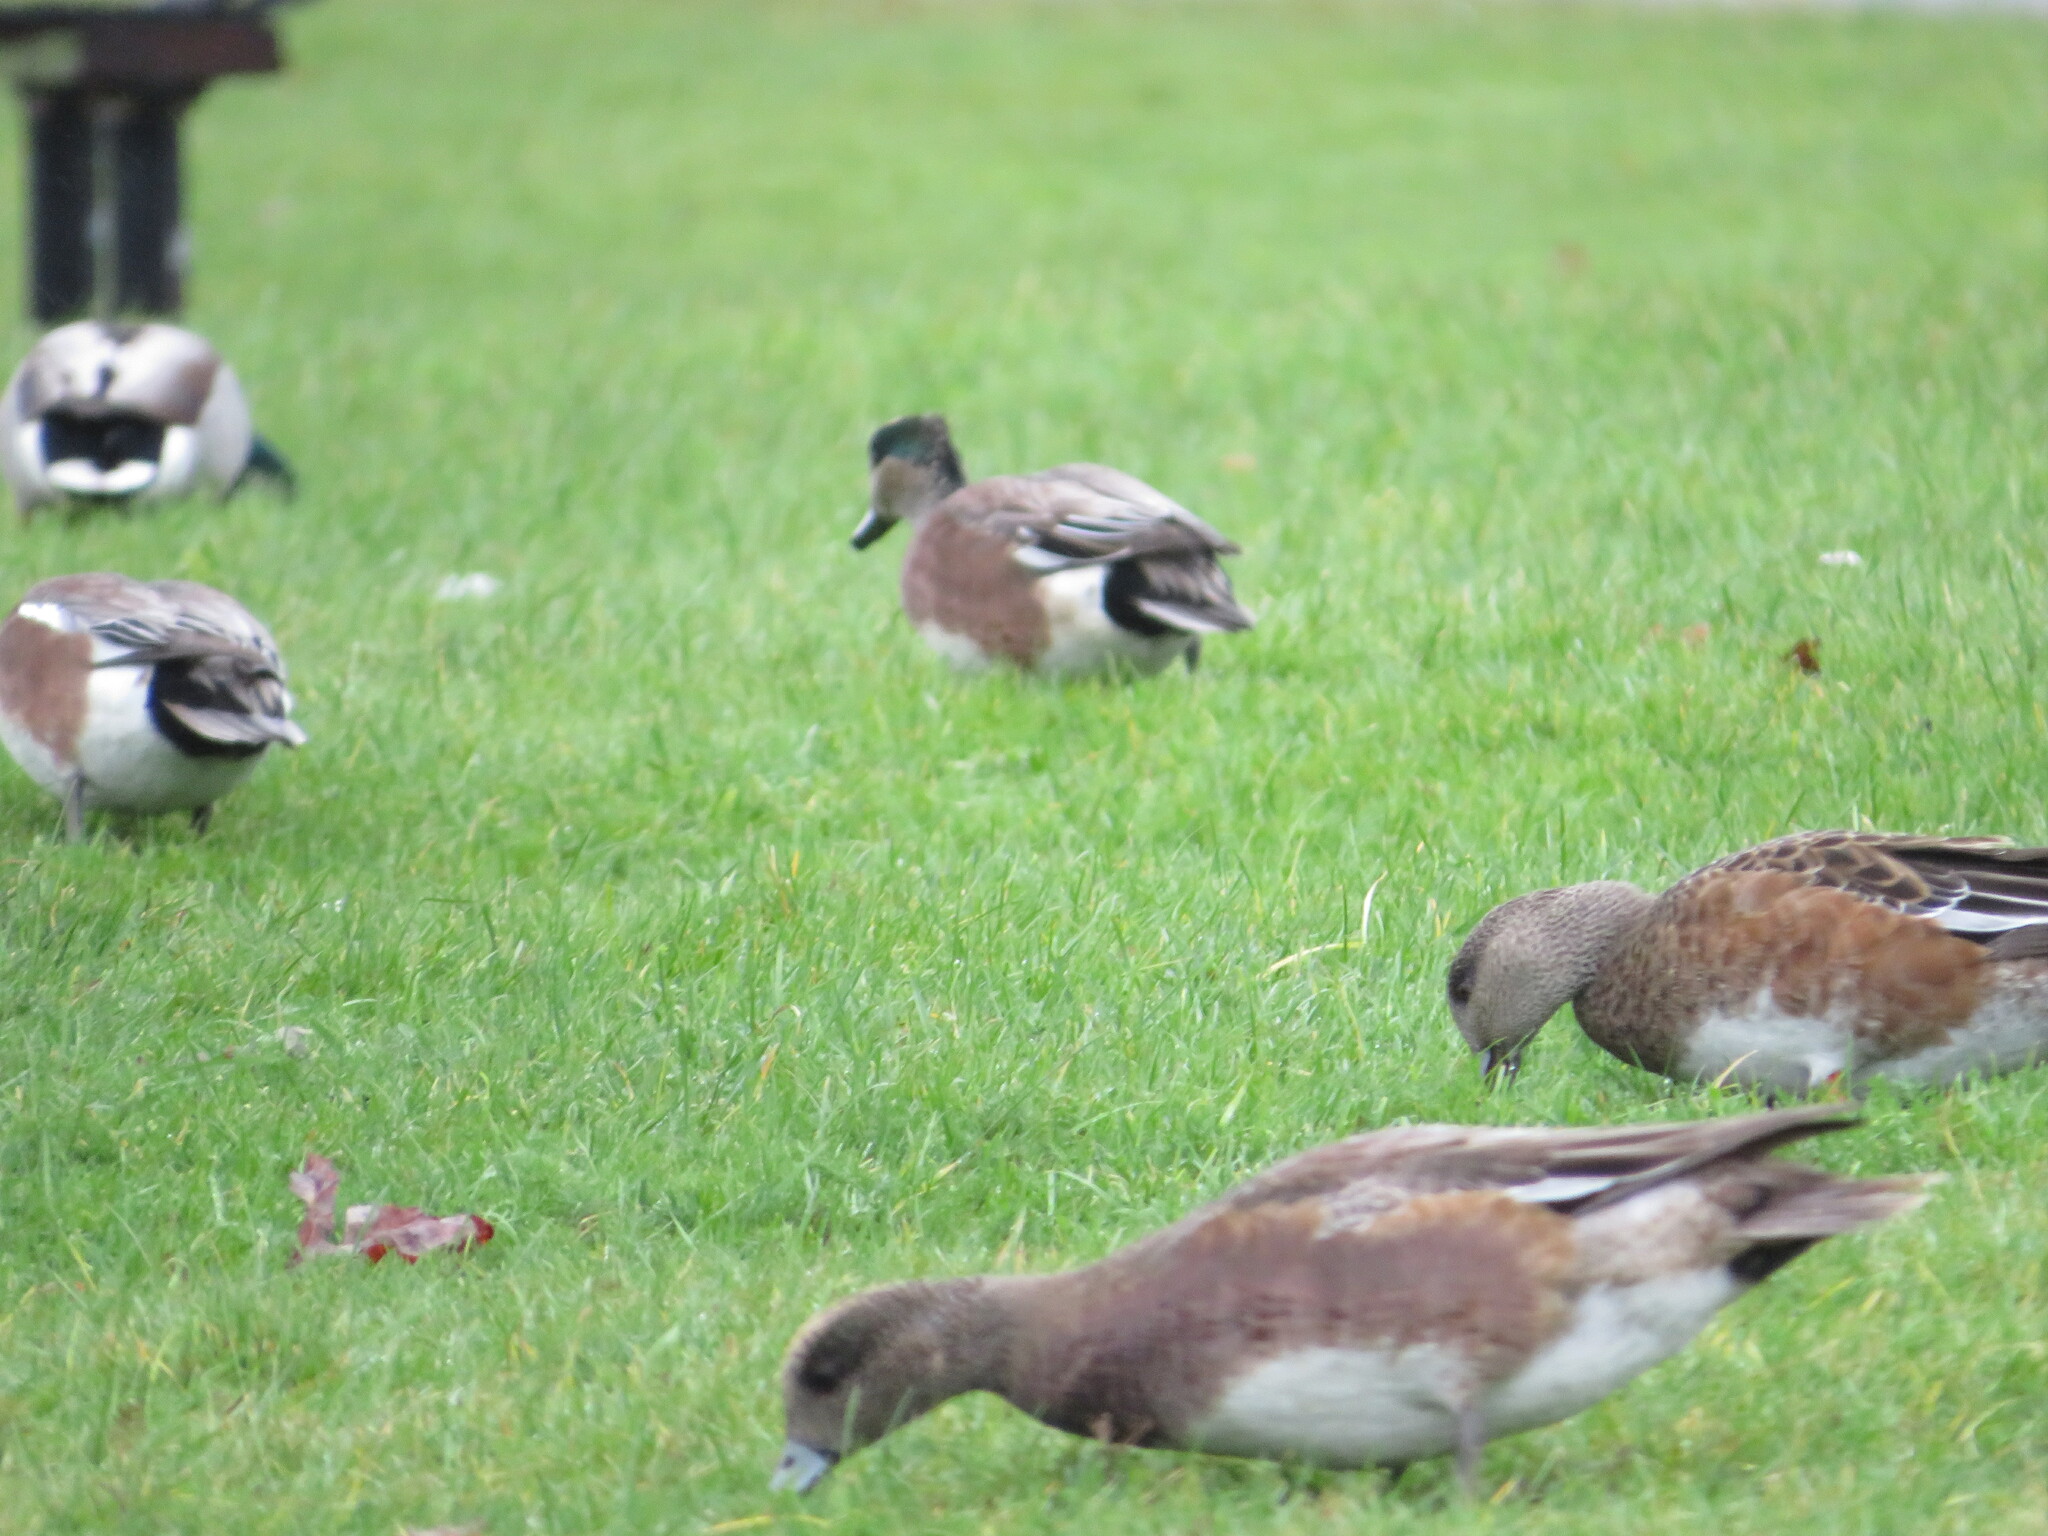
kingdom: Animalia
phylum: Chordata
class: Aves
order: Anseriformes
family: Anatidae
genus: Mareca
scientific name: Mareca americana
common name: American wigeon
